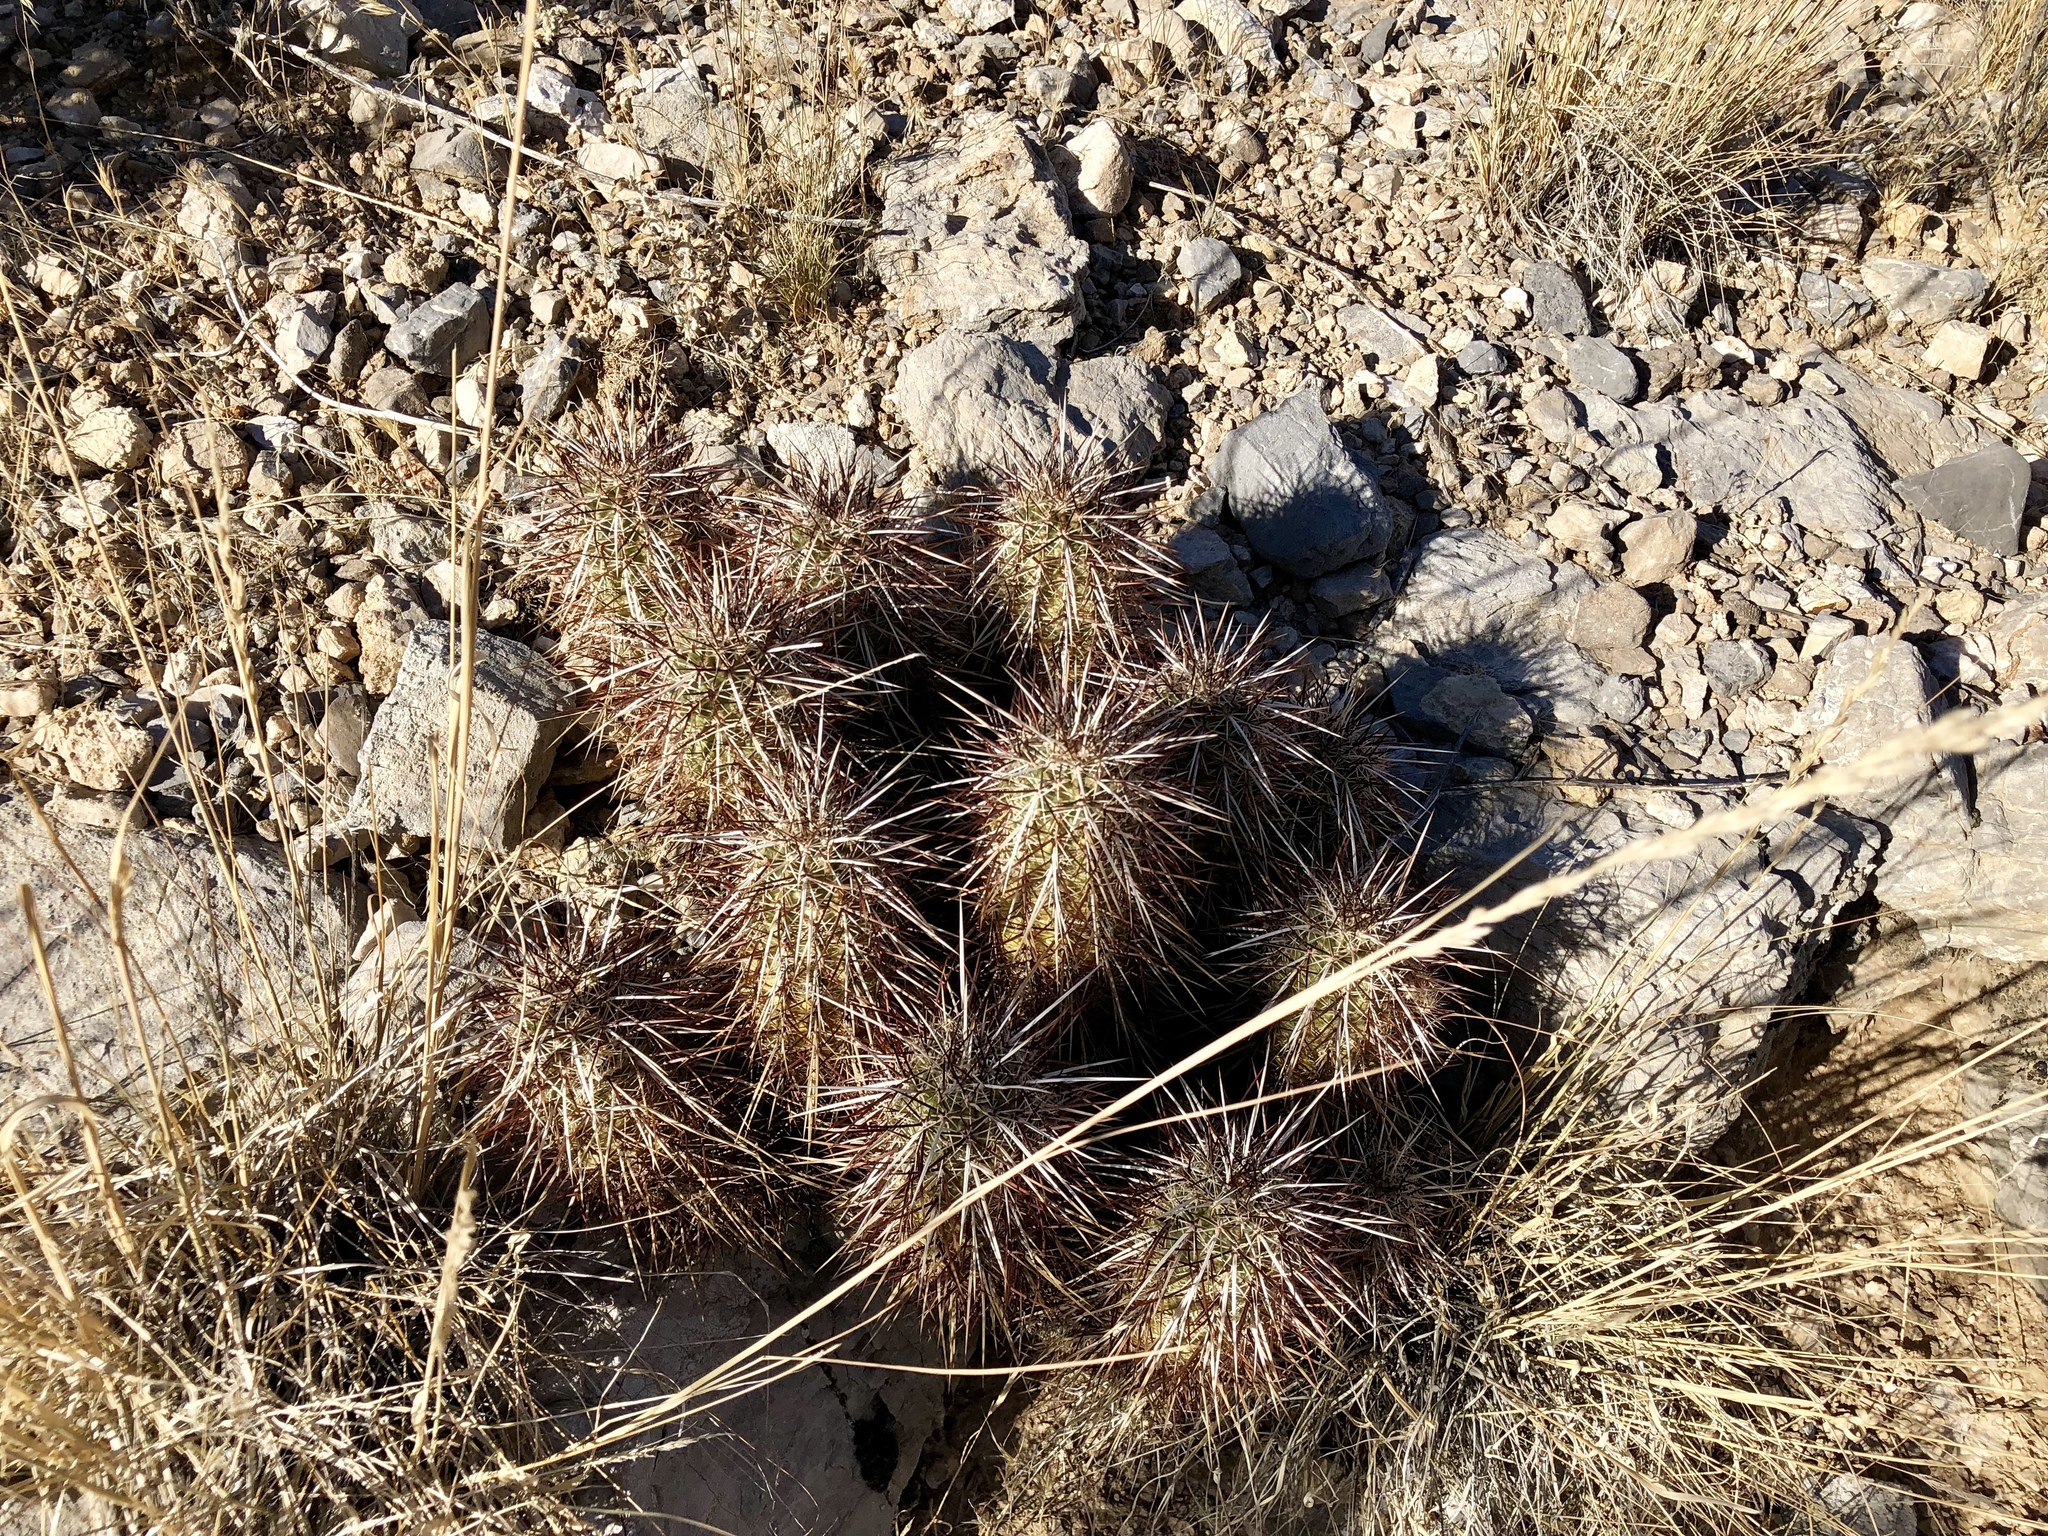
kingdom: Plantae
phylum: Tracheophyta
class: Magnoliopsida
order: Caryophyllales
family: Cactaceae
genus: Echinocereus
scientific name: Echinocereus engelmannii
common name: Engelmann's hedgehog cactus
